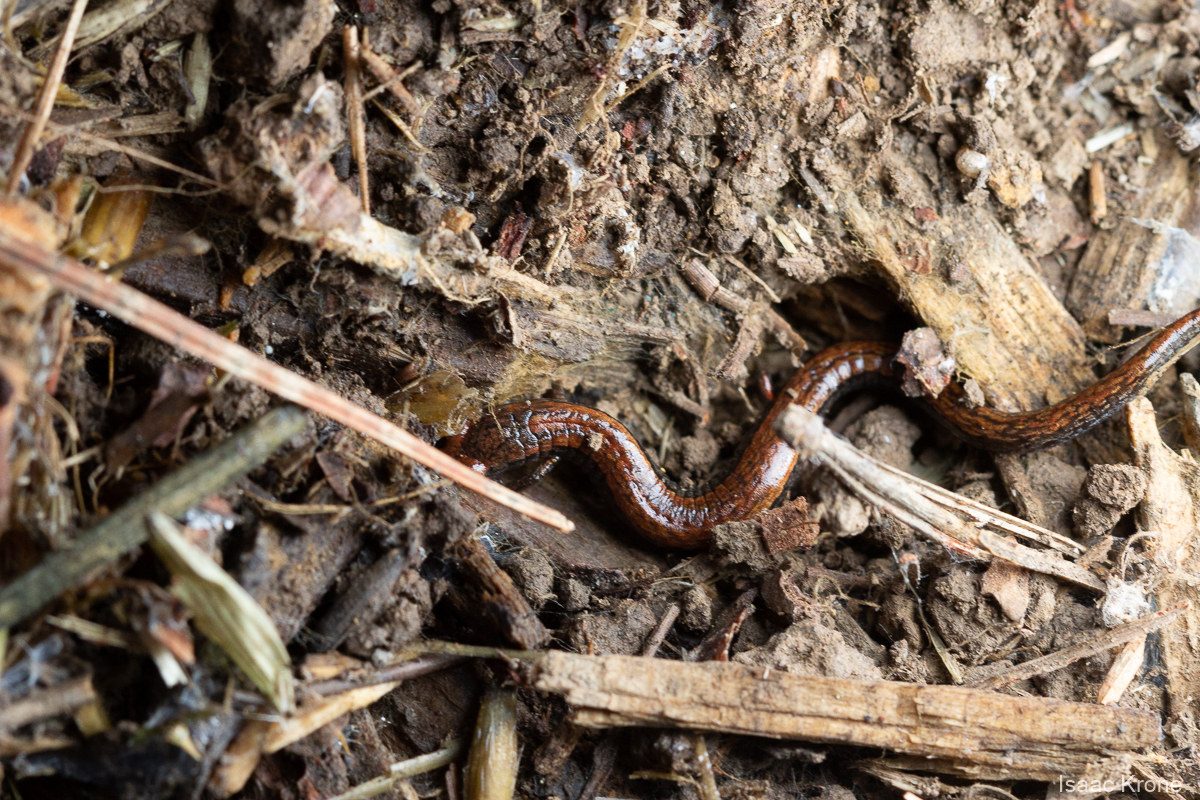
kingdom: Animalia
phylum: Chordata
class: Amphibia
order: Caudata
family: Plethodontidae
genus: Batrachoseps
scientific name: Batrachoseps attenuatus
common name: California slender salamander
